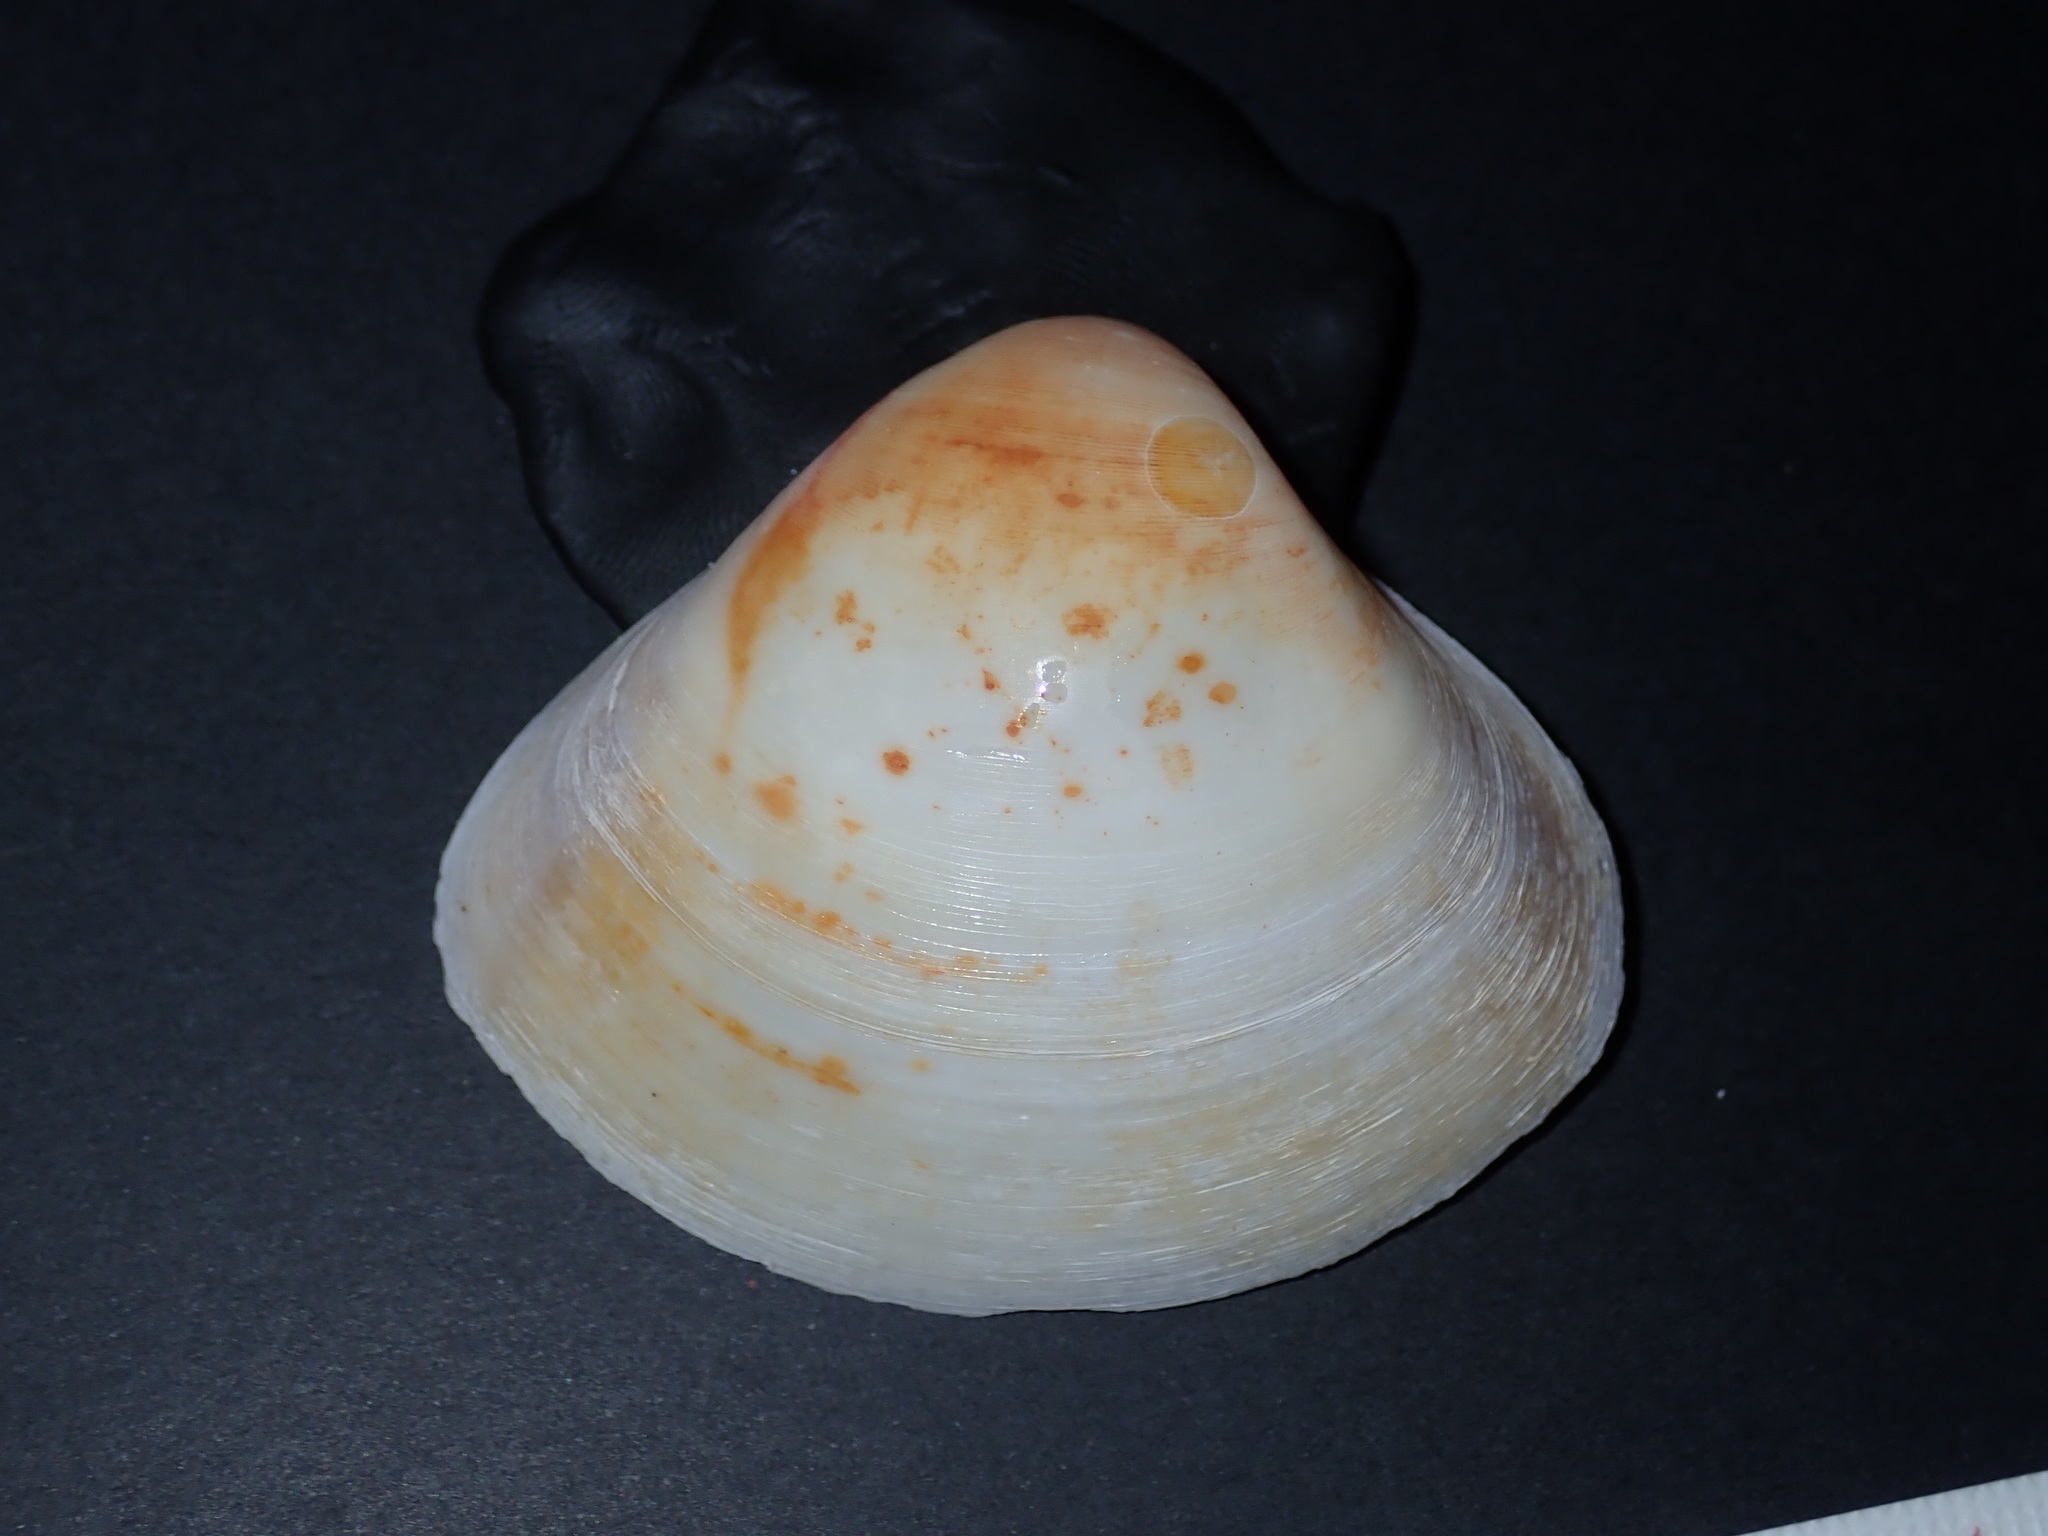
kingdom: Animalia
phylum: Mollusca
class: Bivalvia
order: Venerida
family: Mactridae
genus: Mactra
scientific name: Mactra turgida
